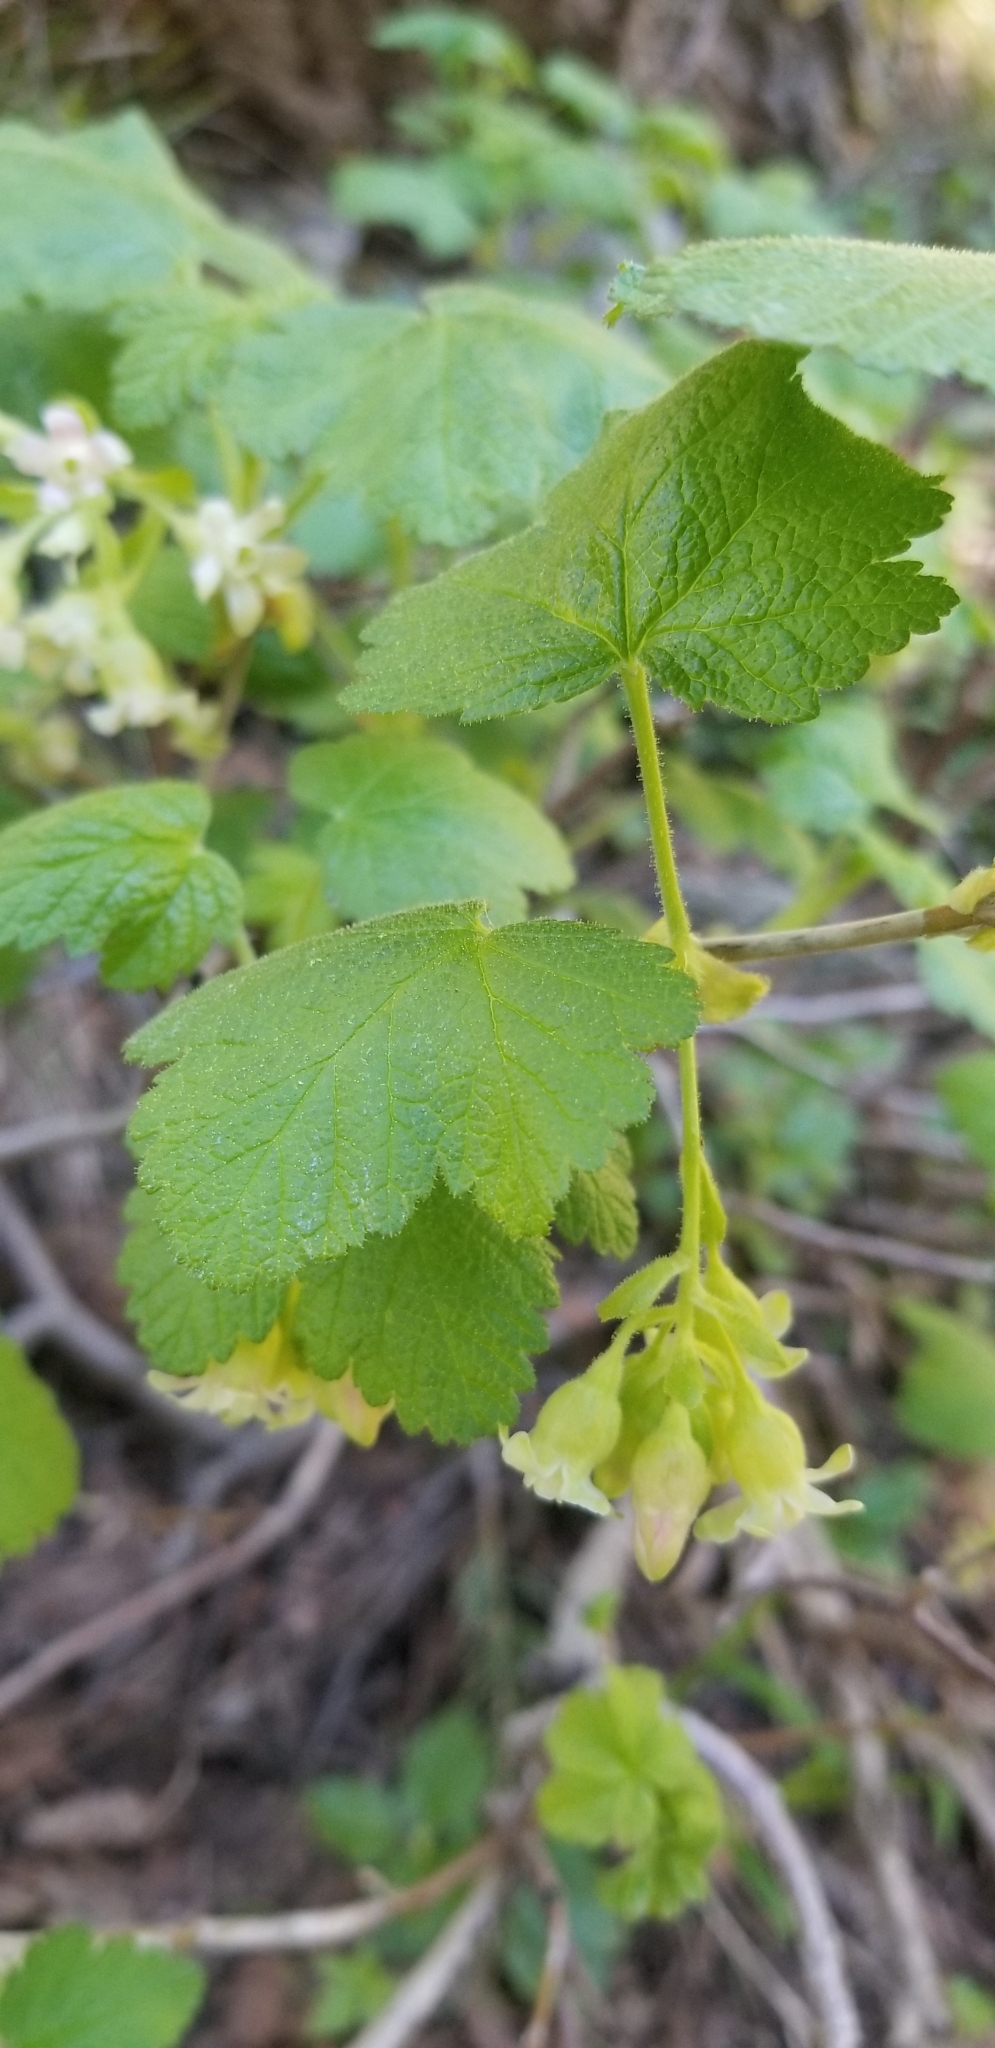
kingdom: Plantae
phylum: Tracheophyta
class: Magnoliopsida
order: Saxifragales
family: Grossulariaceae
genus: Ribes
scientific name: Ribes viscosissimum
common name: Sticky currant
